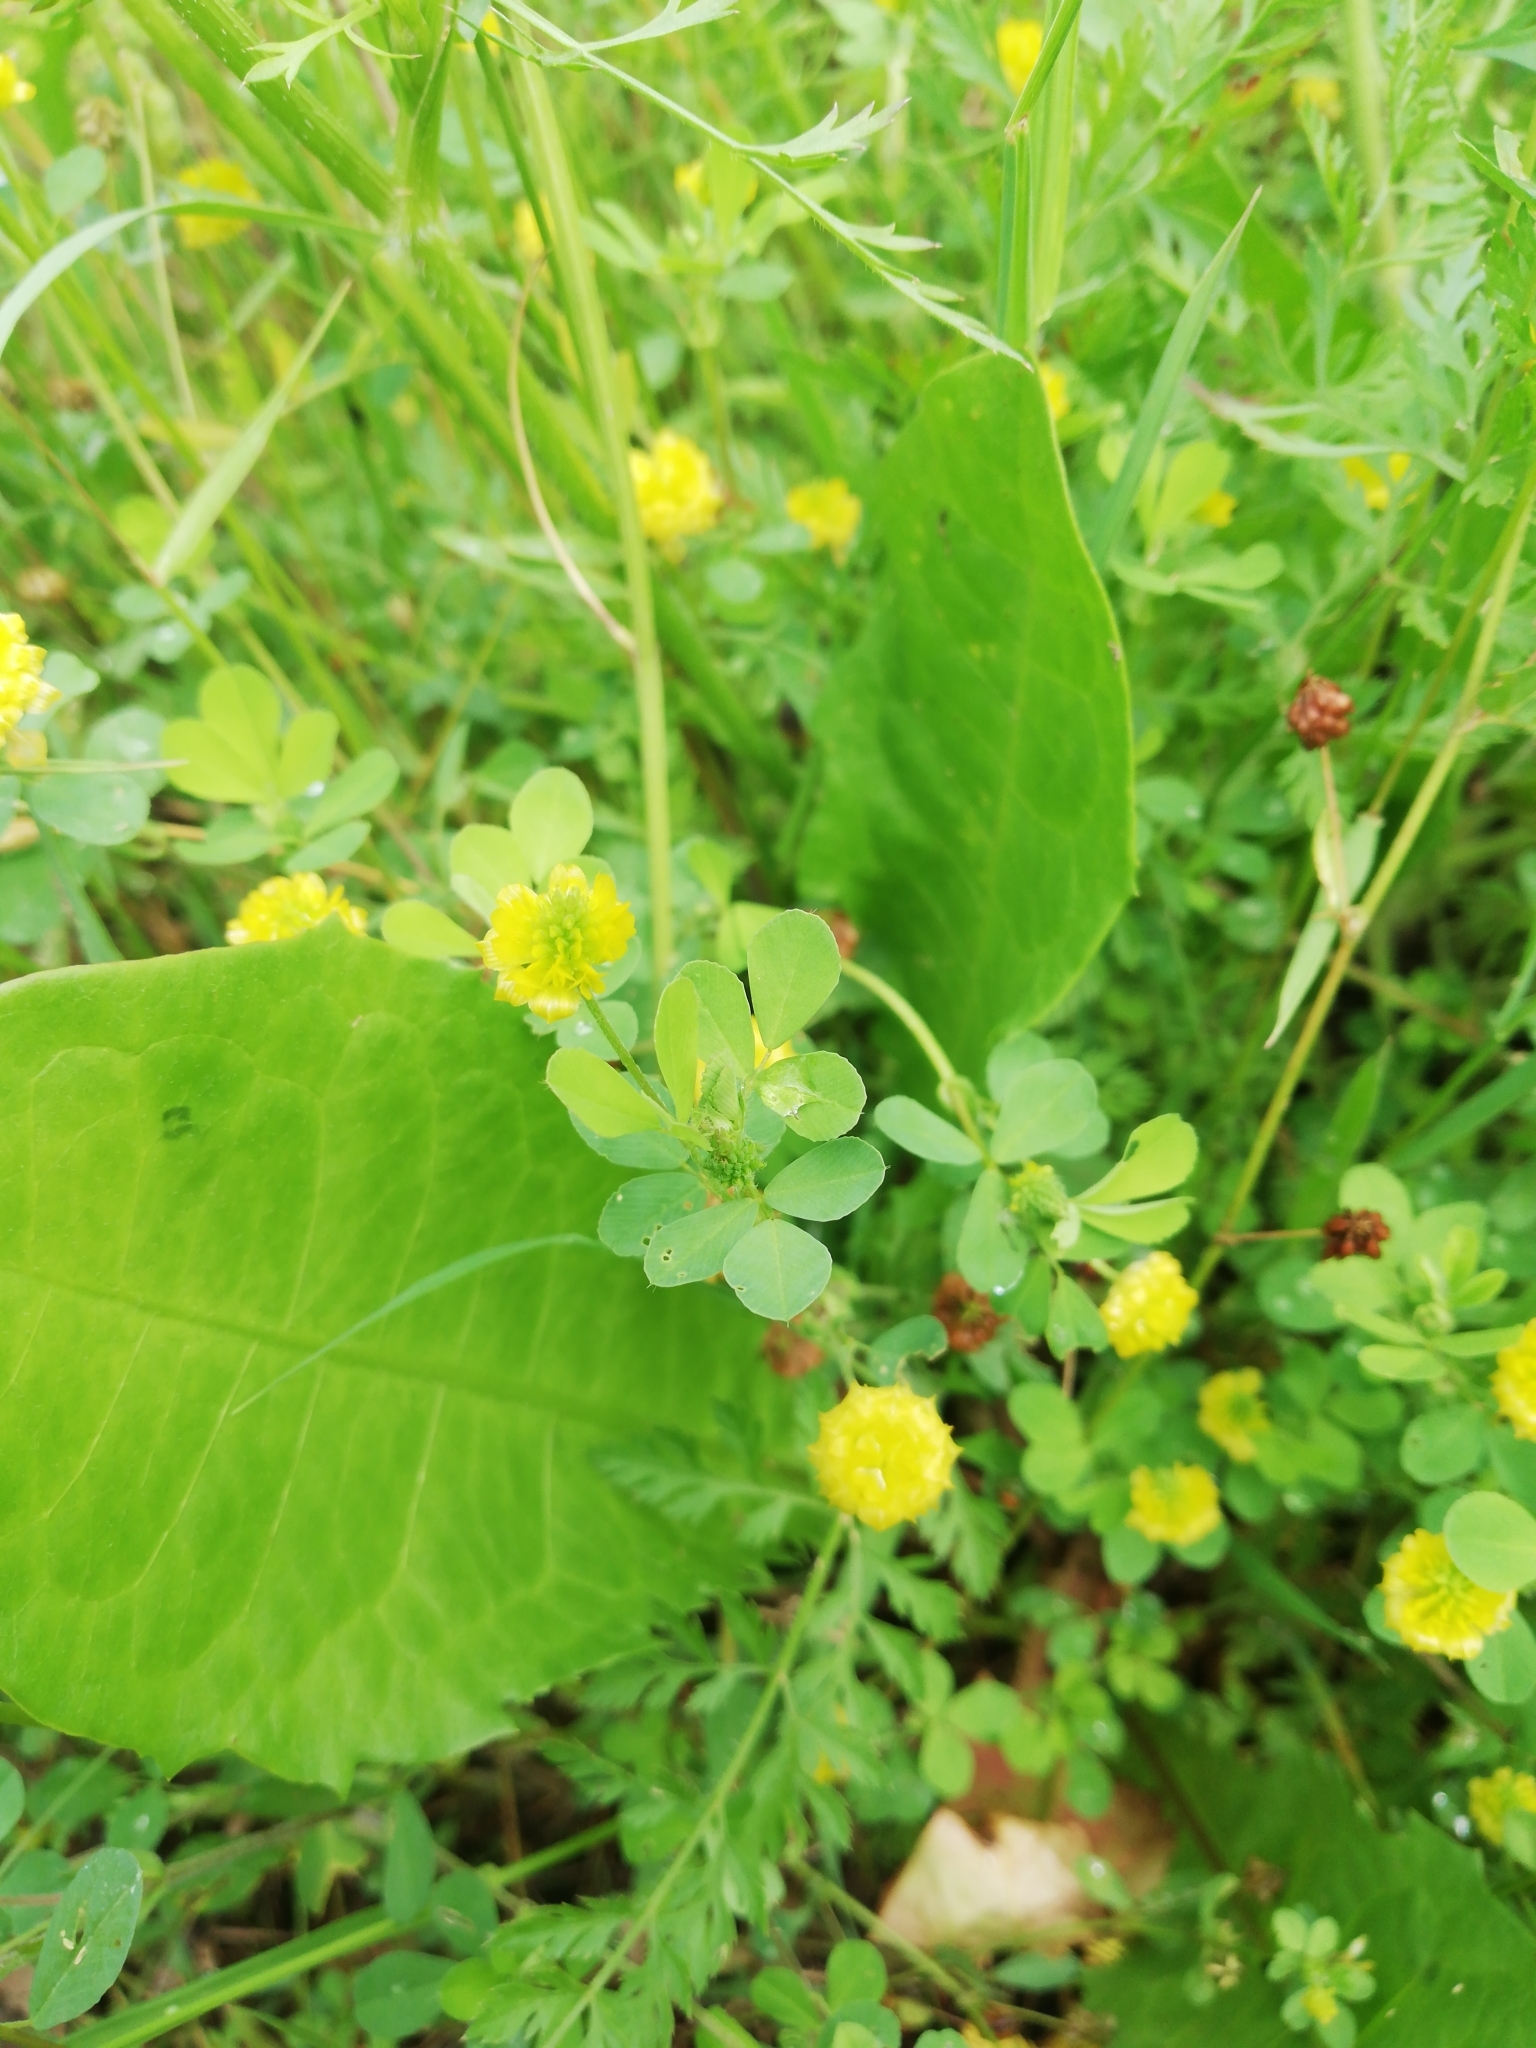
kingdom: Plantae
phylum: Tracheophyta
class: Magnoliopsida
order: Fabales
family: Fabaceae
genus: Trifolium
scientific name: Trifolium campestre
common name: Field clover
